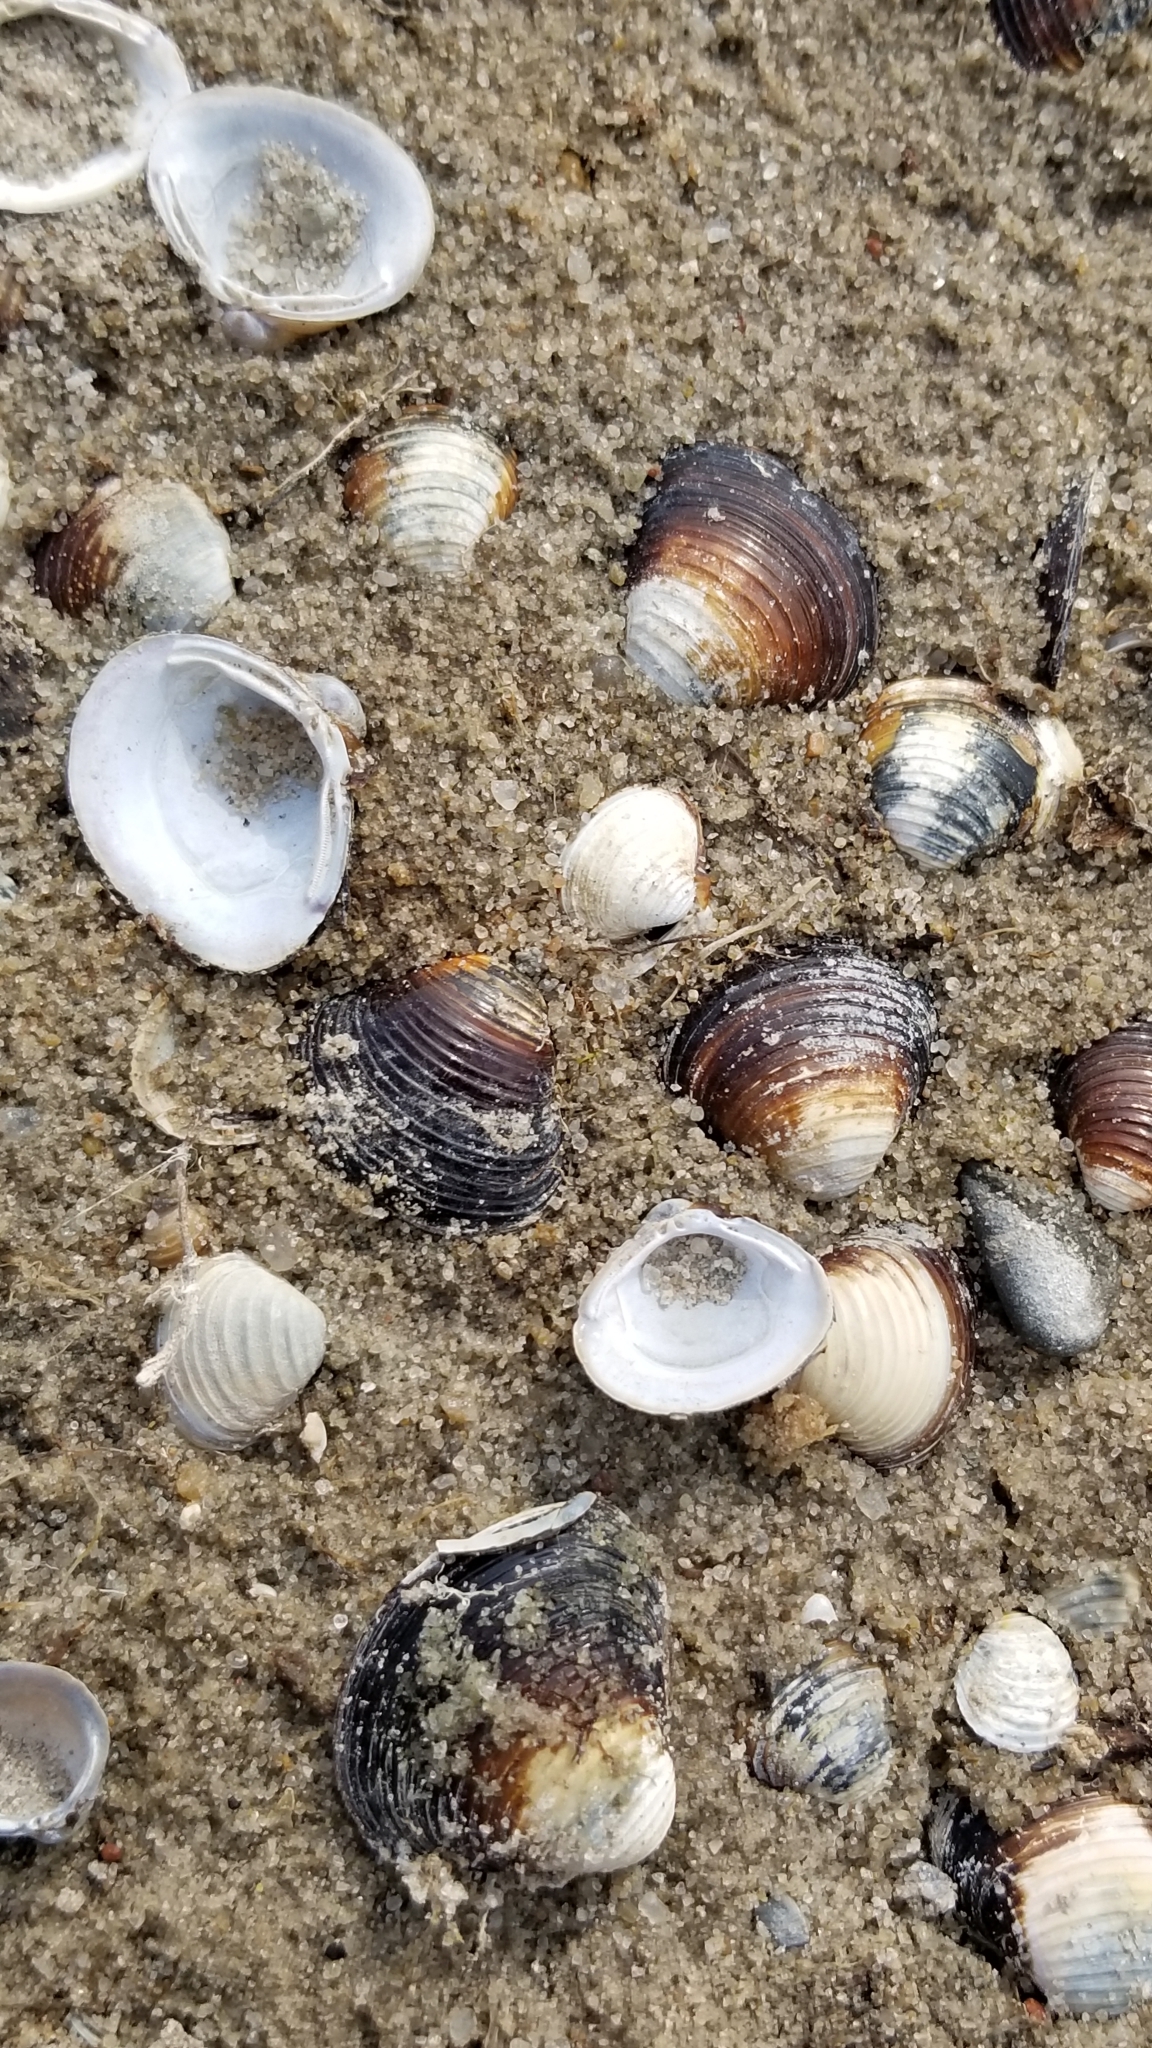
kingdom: Animalia
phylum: Mollusca
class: Bivalvia
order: Venerida
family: Cyrenidae
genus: Corbicula
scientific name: Corbicula fluminea
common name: Asian clam
